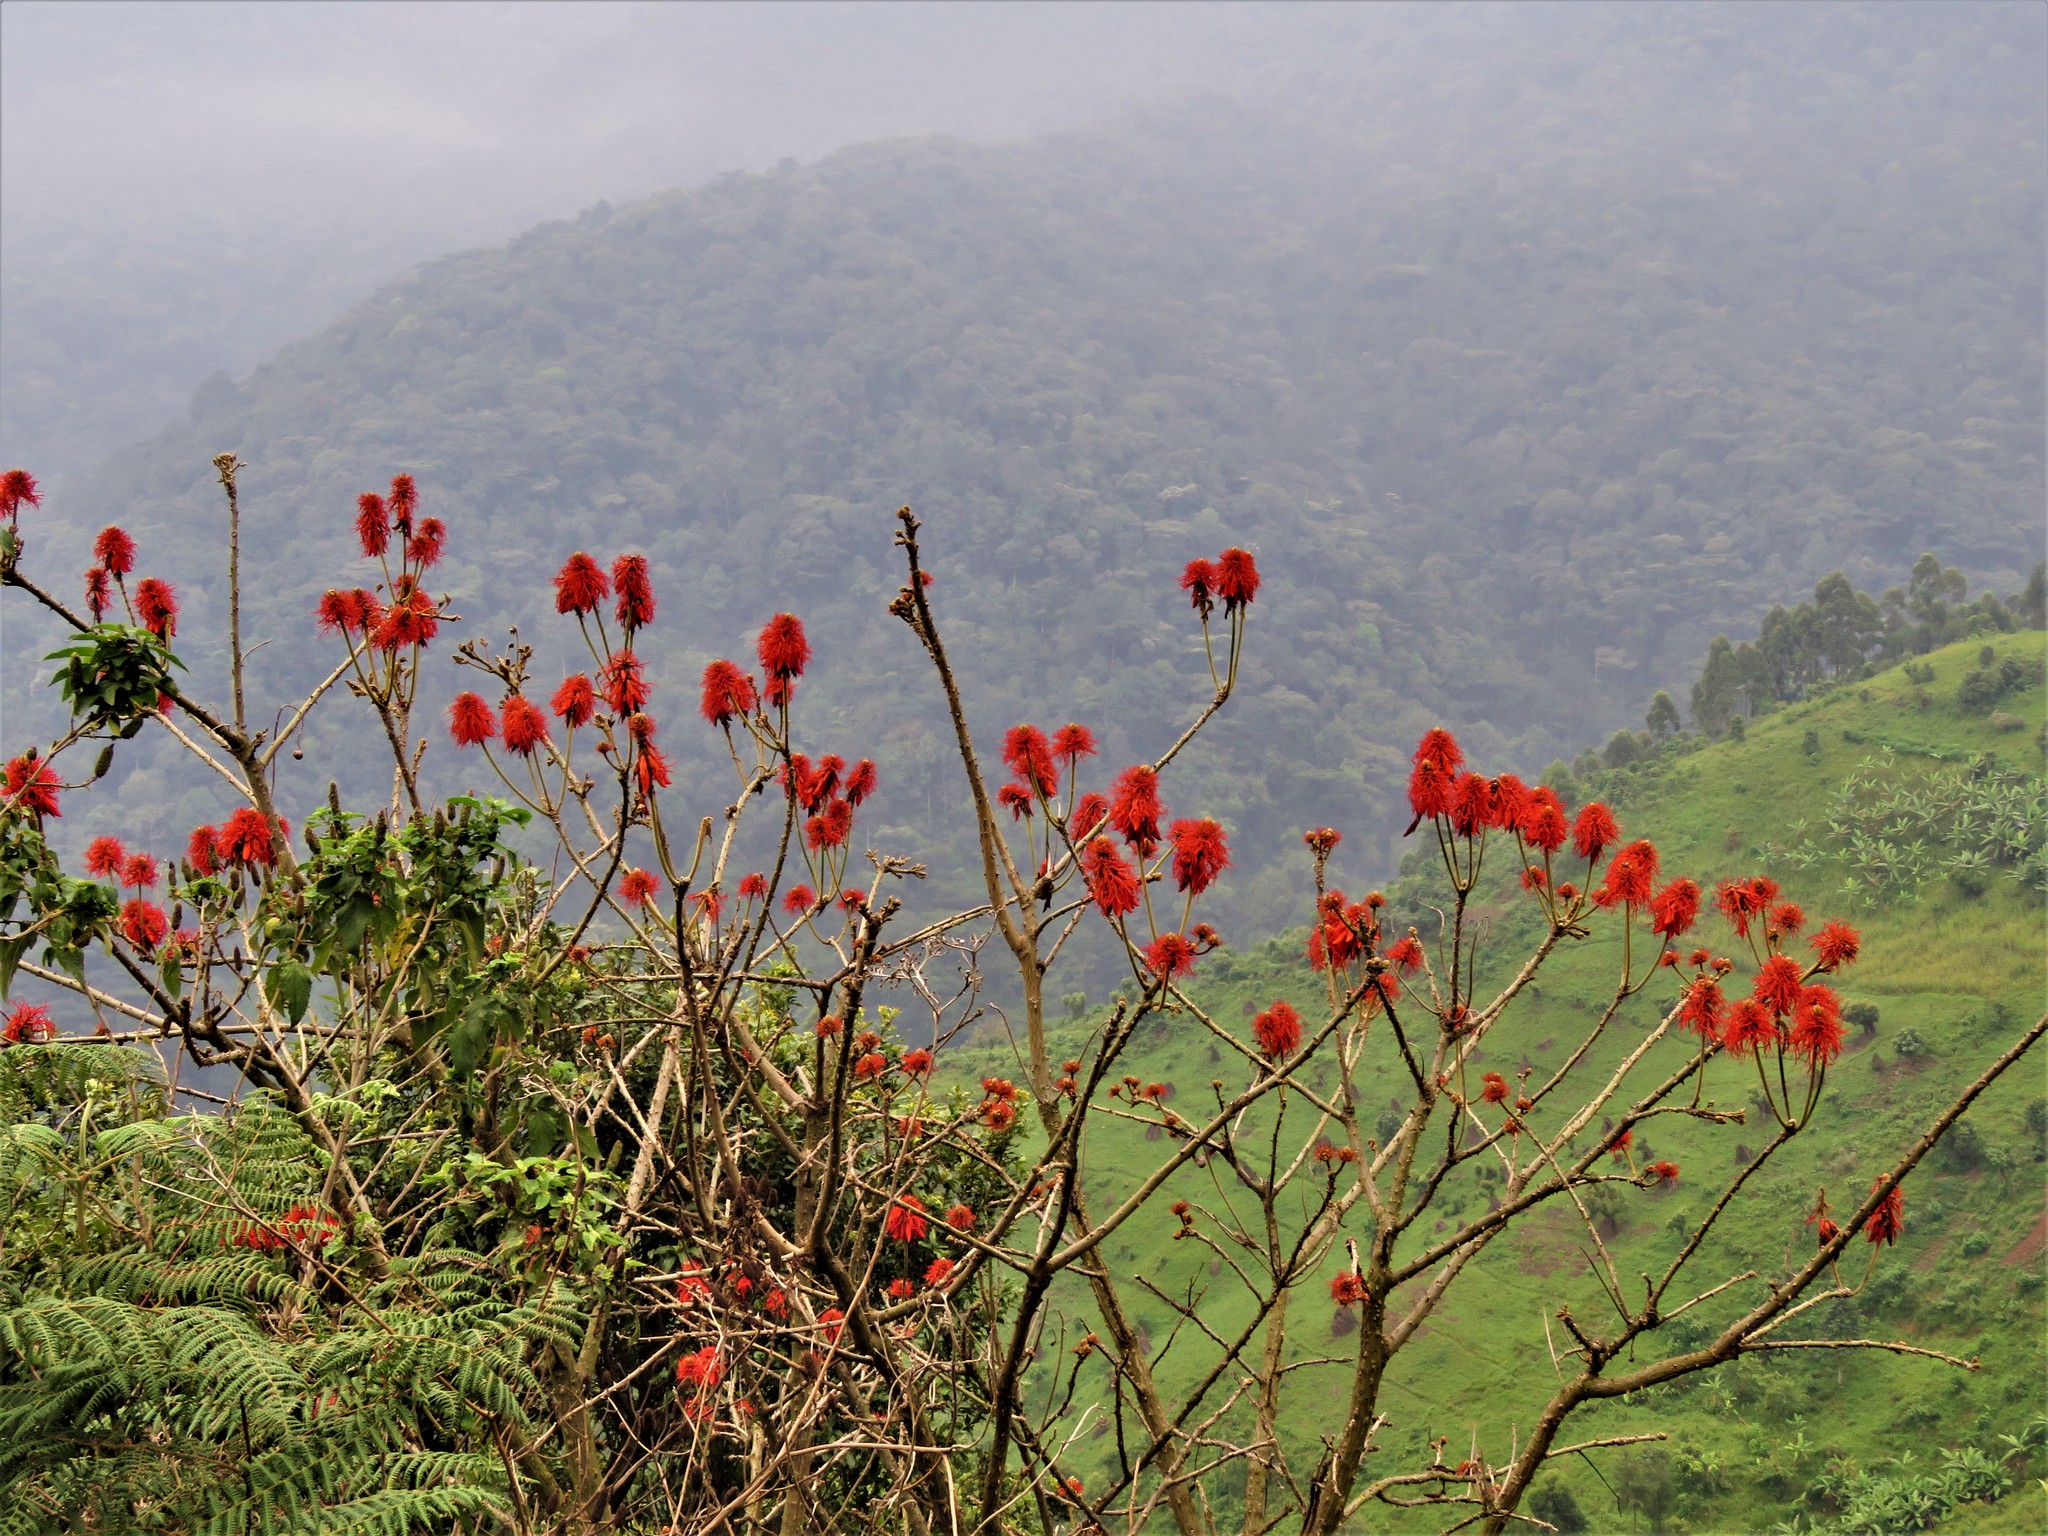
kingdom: Plantae
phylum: Tracheophyta
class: Magnoliopsida
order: Fabales
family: Fabaceae
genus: Erythrina
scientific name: Erythrina abyssinica
